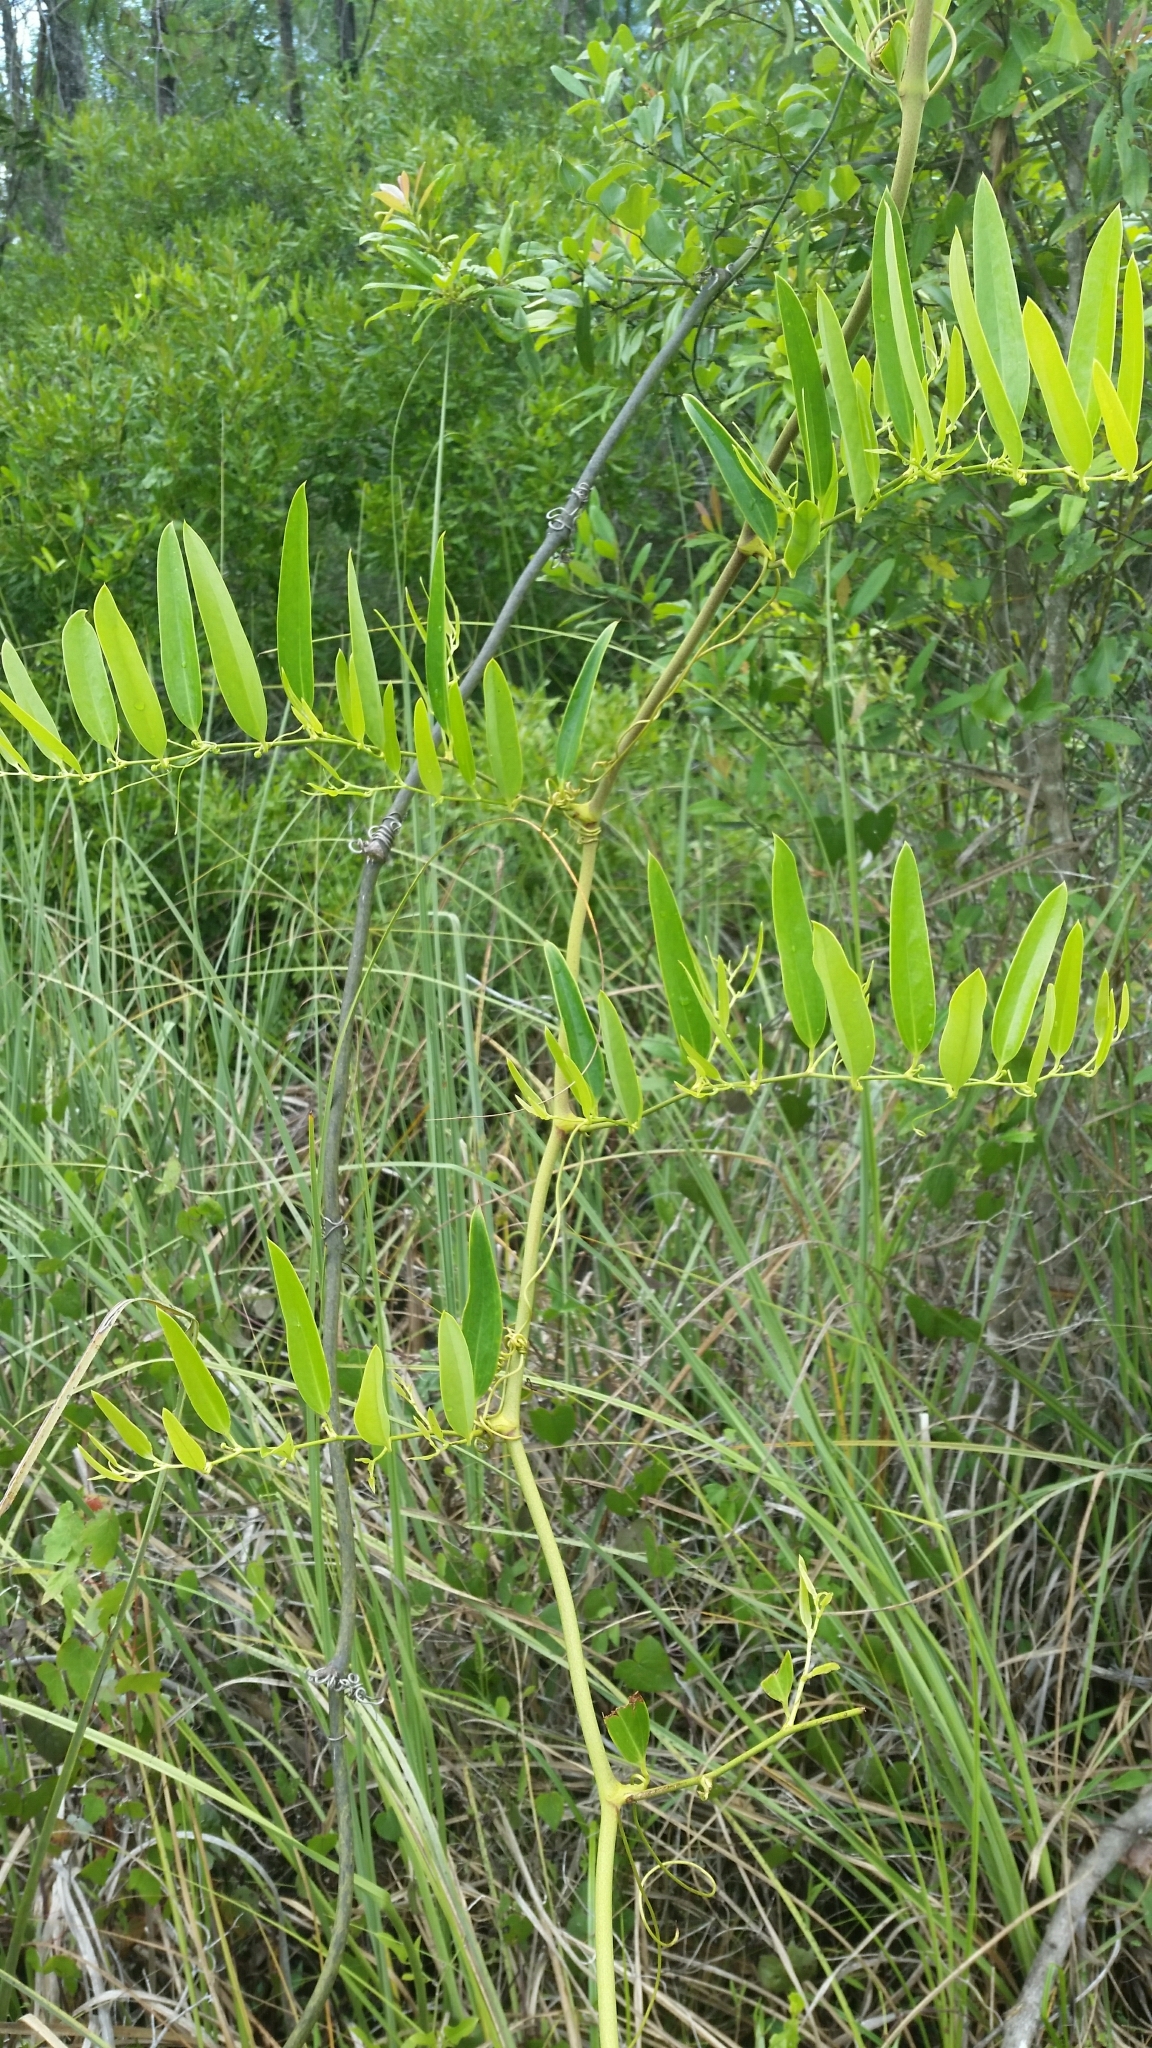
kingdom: Plantae
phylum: Tracheophyta
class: Liliopsida
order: Liliales
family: Smilacaceae
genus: Smilax
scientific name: Smilax laurifolia
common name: Bamboovine
